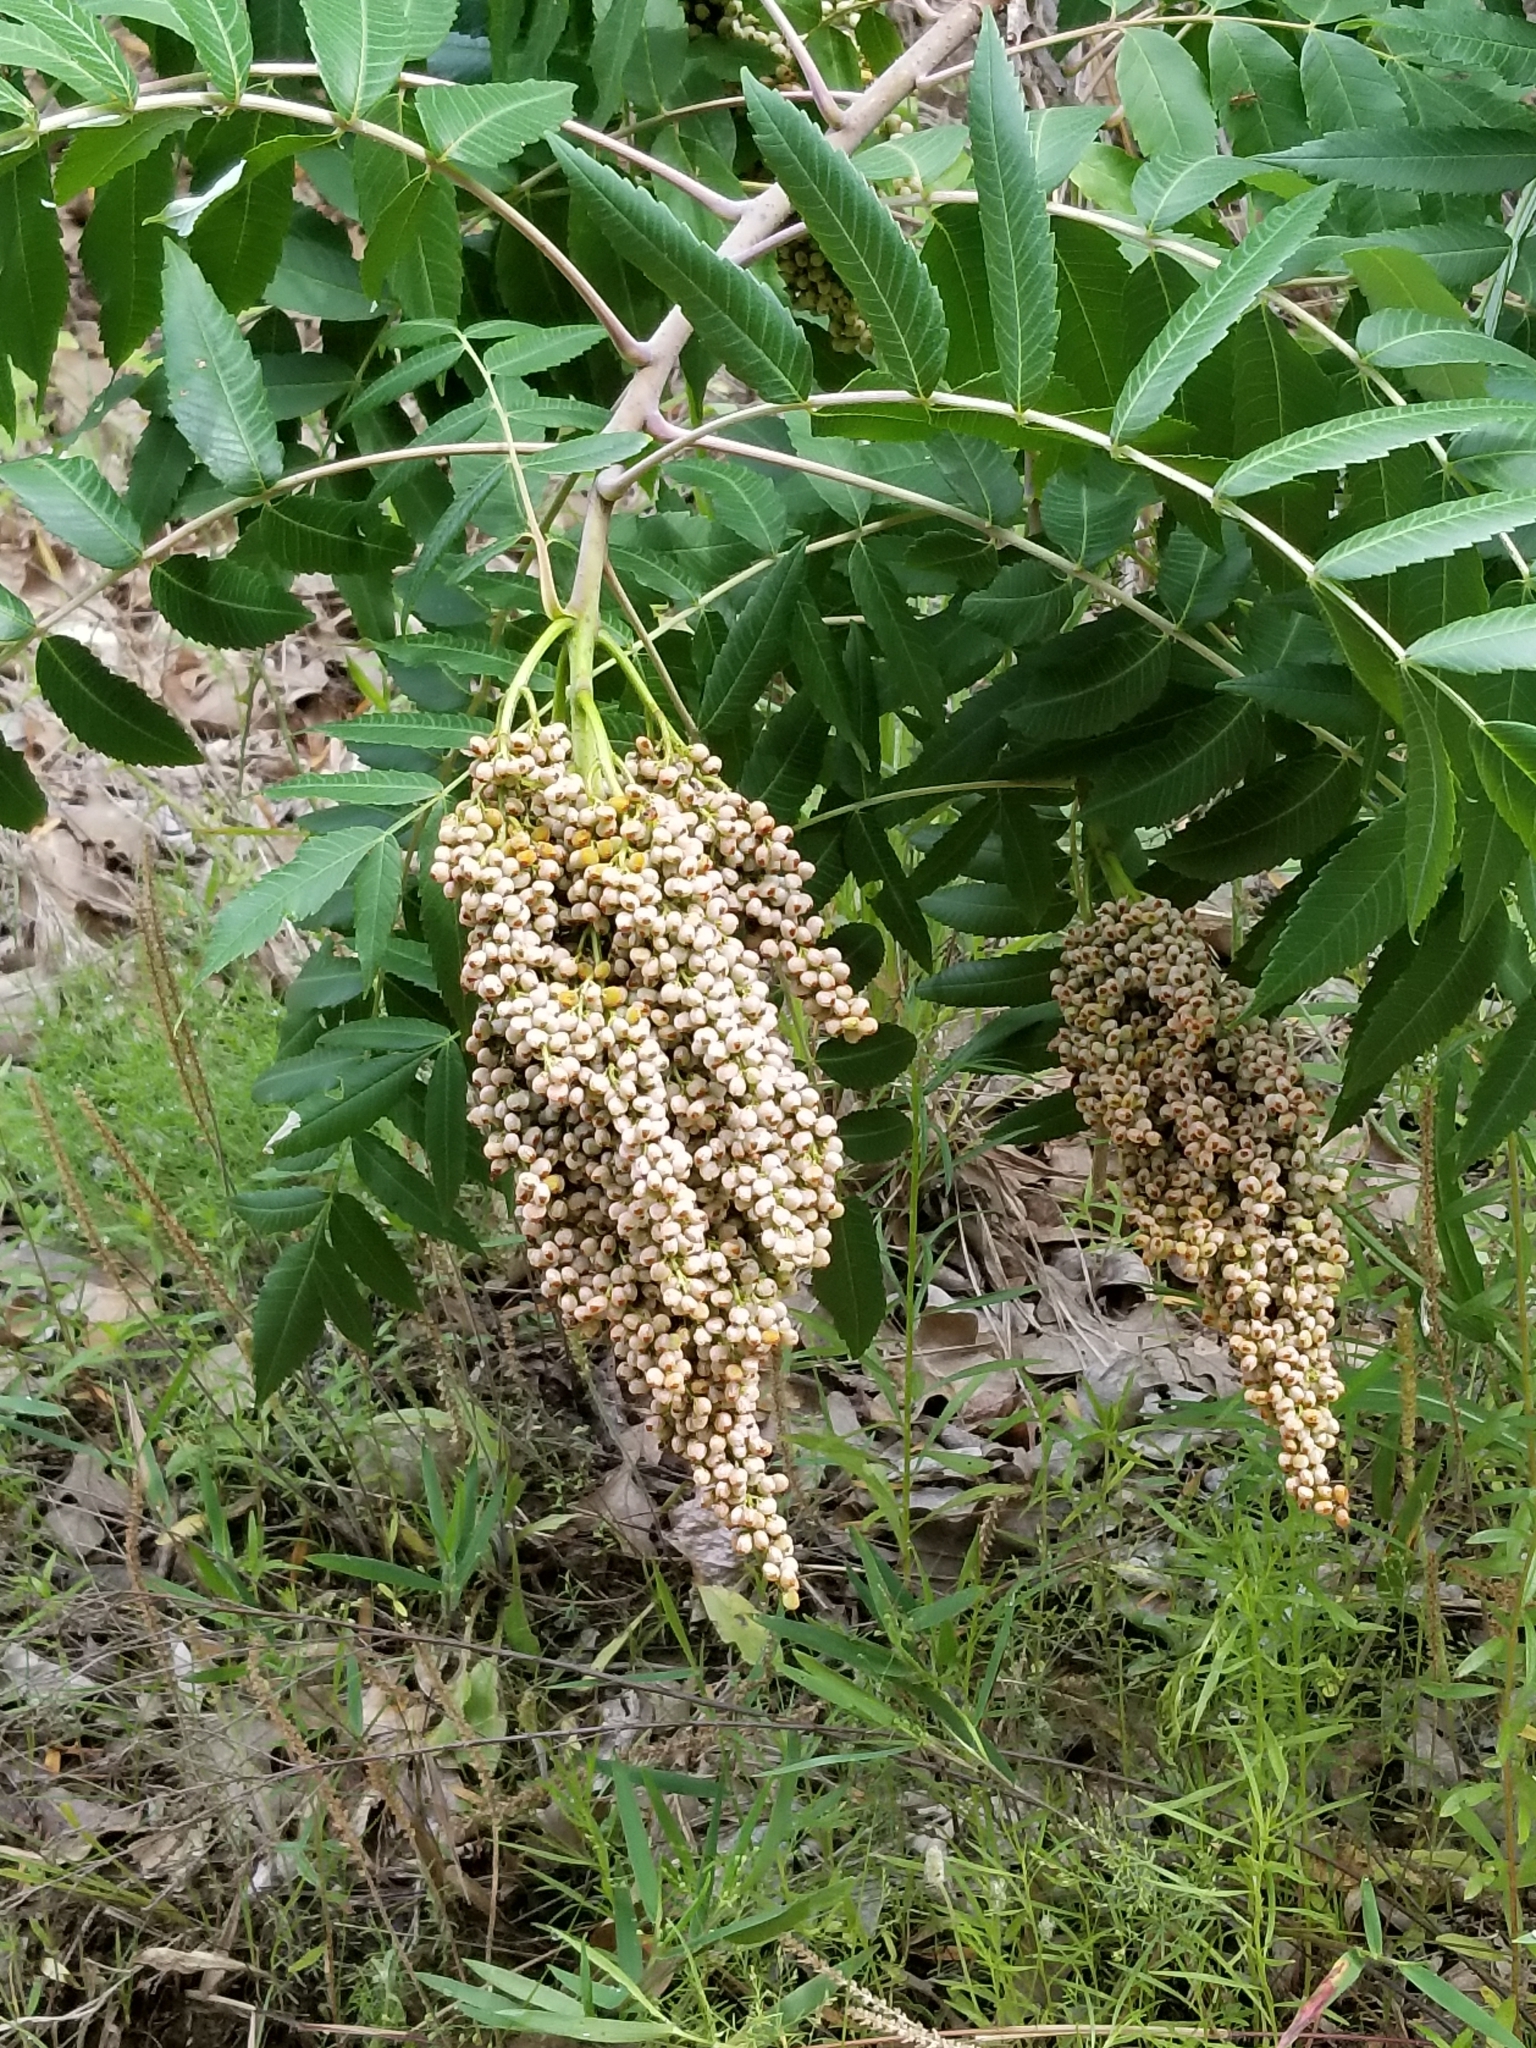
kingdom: Plantae
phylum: Tracheophyta
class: Magnoliopsida
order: Sapindales
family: Anacardiaceae
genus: Rhus
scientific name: Rhus glabra
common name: Scarlet sumac
